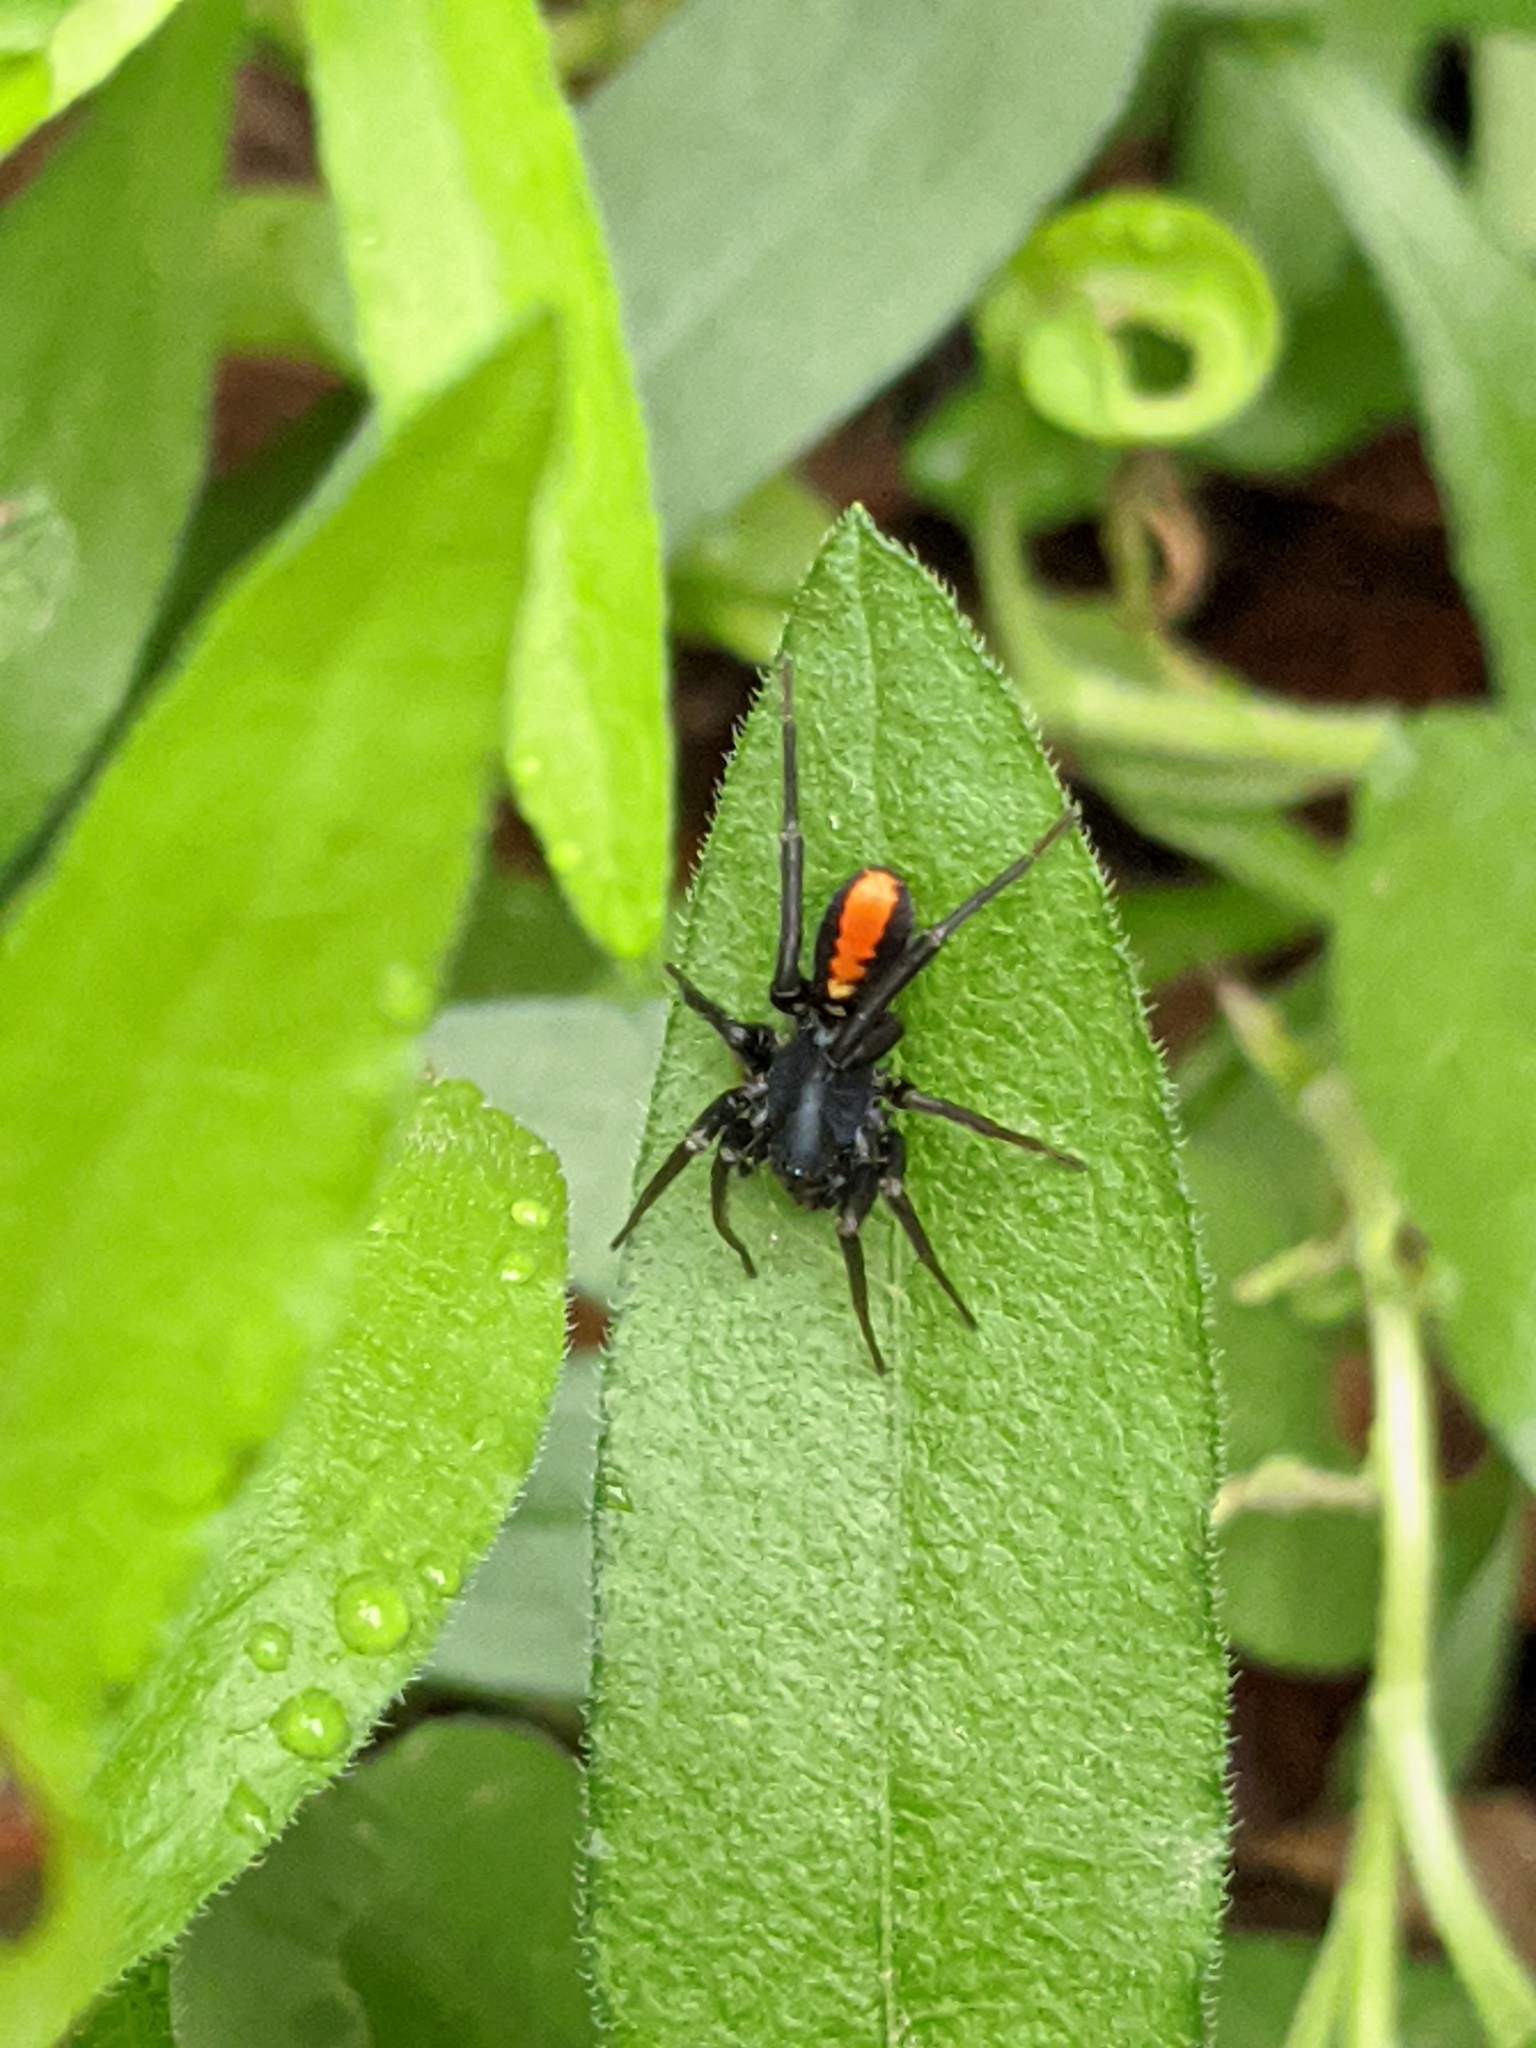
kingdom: Animalia
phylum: Arthropoda
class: Arachnida
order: Araneae
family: Corinnidae
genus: Castianeira
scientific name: Castianeira crocata
